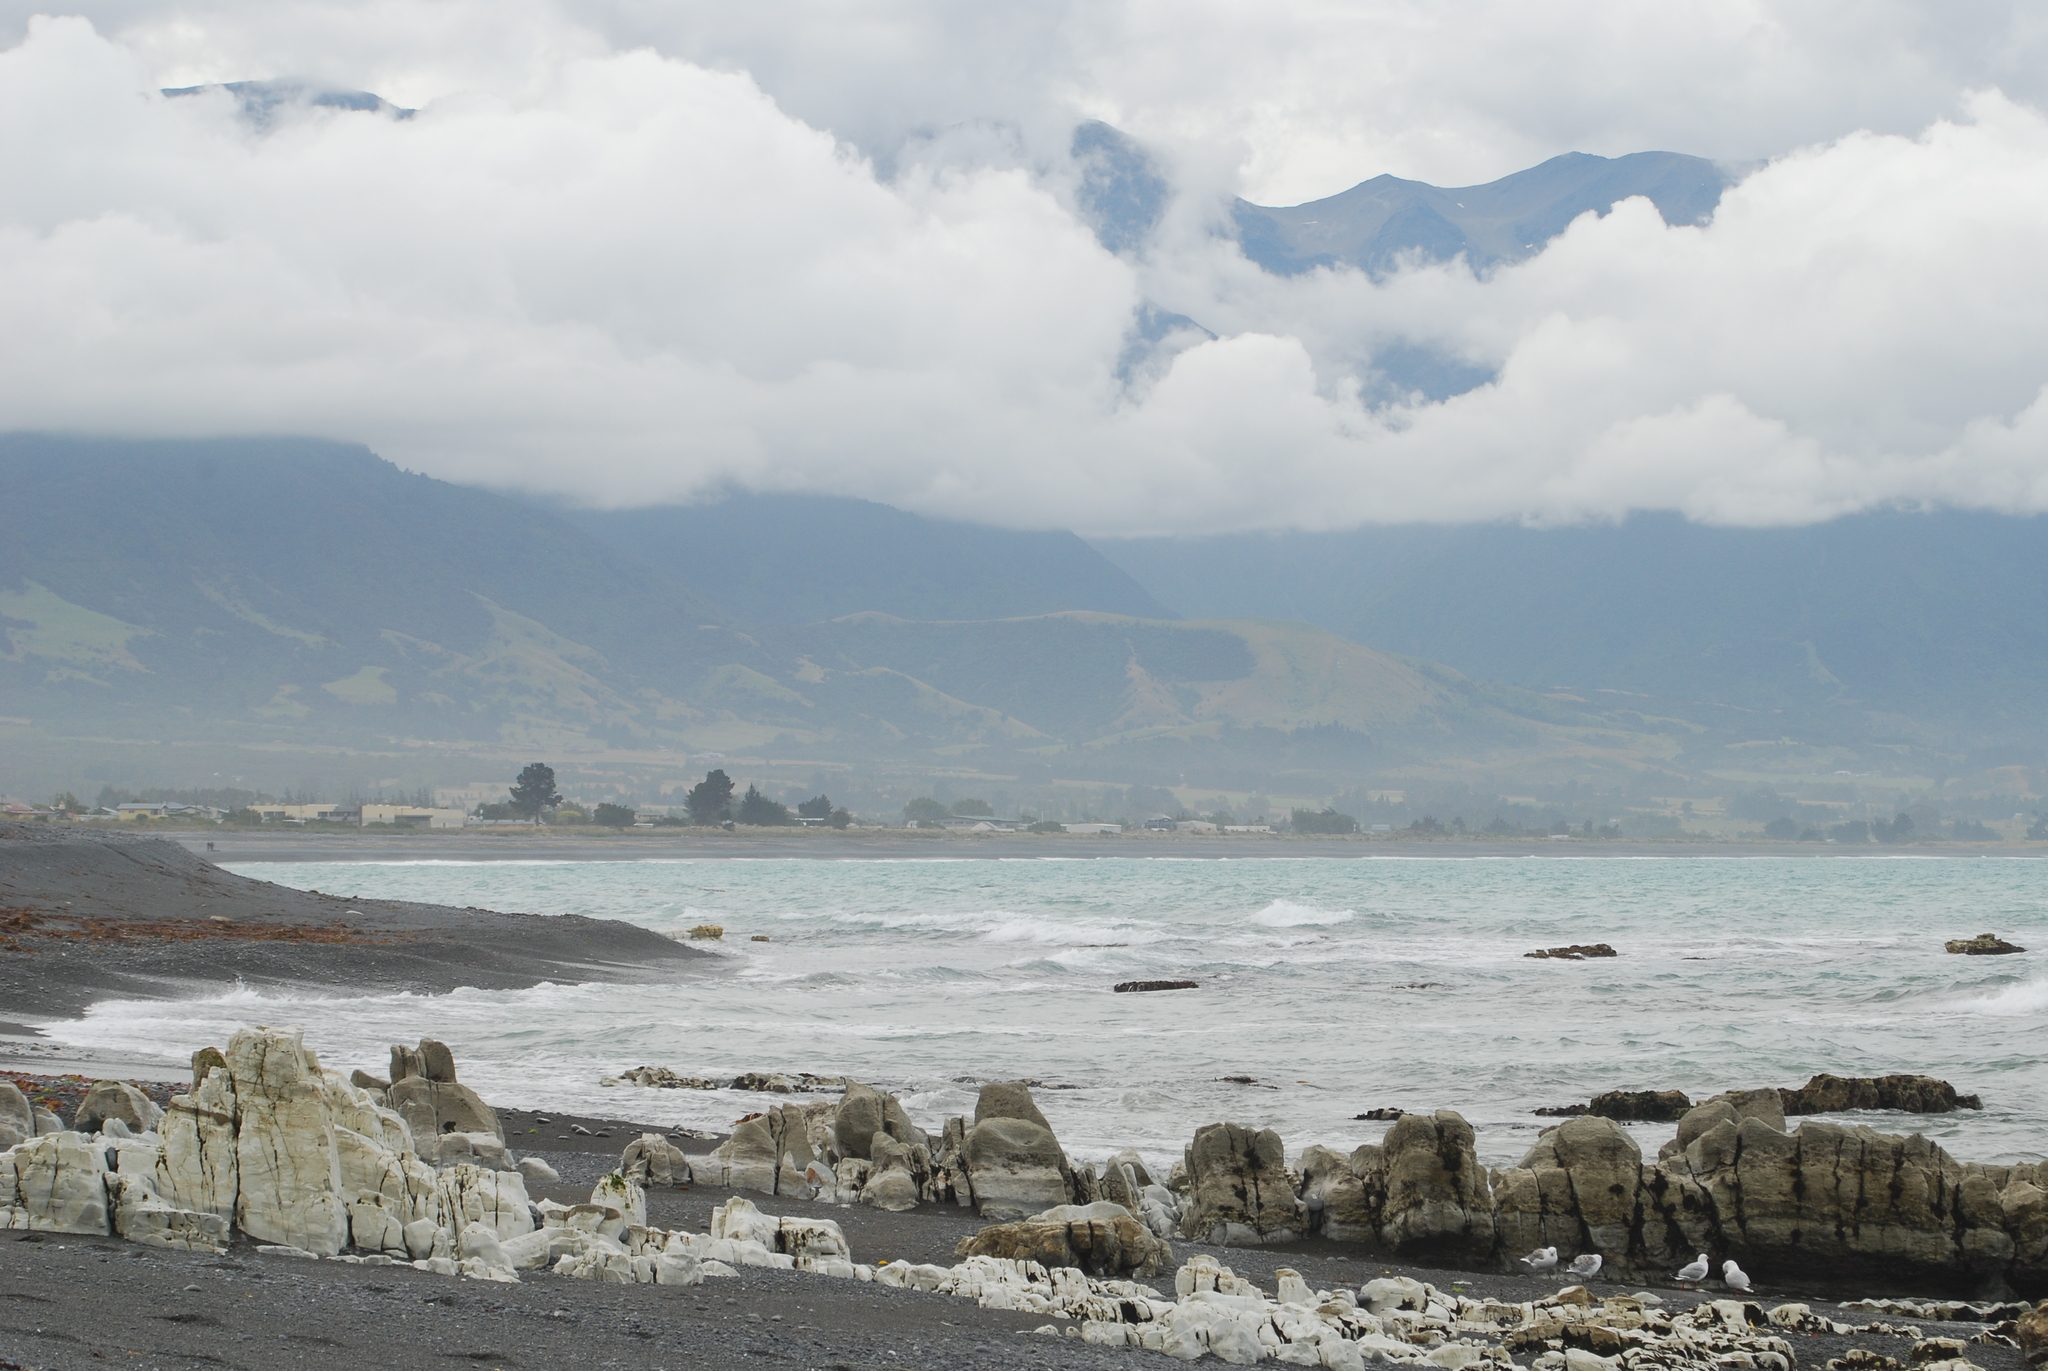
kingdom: Animalia
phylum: Chordata
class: Aves
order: Charadriiformes
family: Laridae
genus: Chroicocephalus
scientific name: Chroicocephalus novaehollandiae
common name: Silver gull
